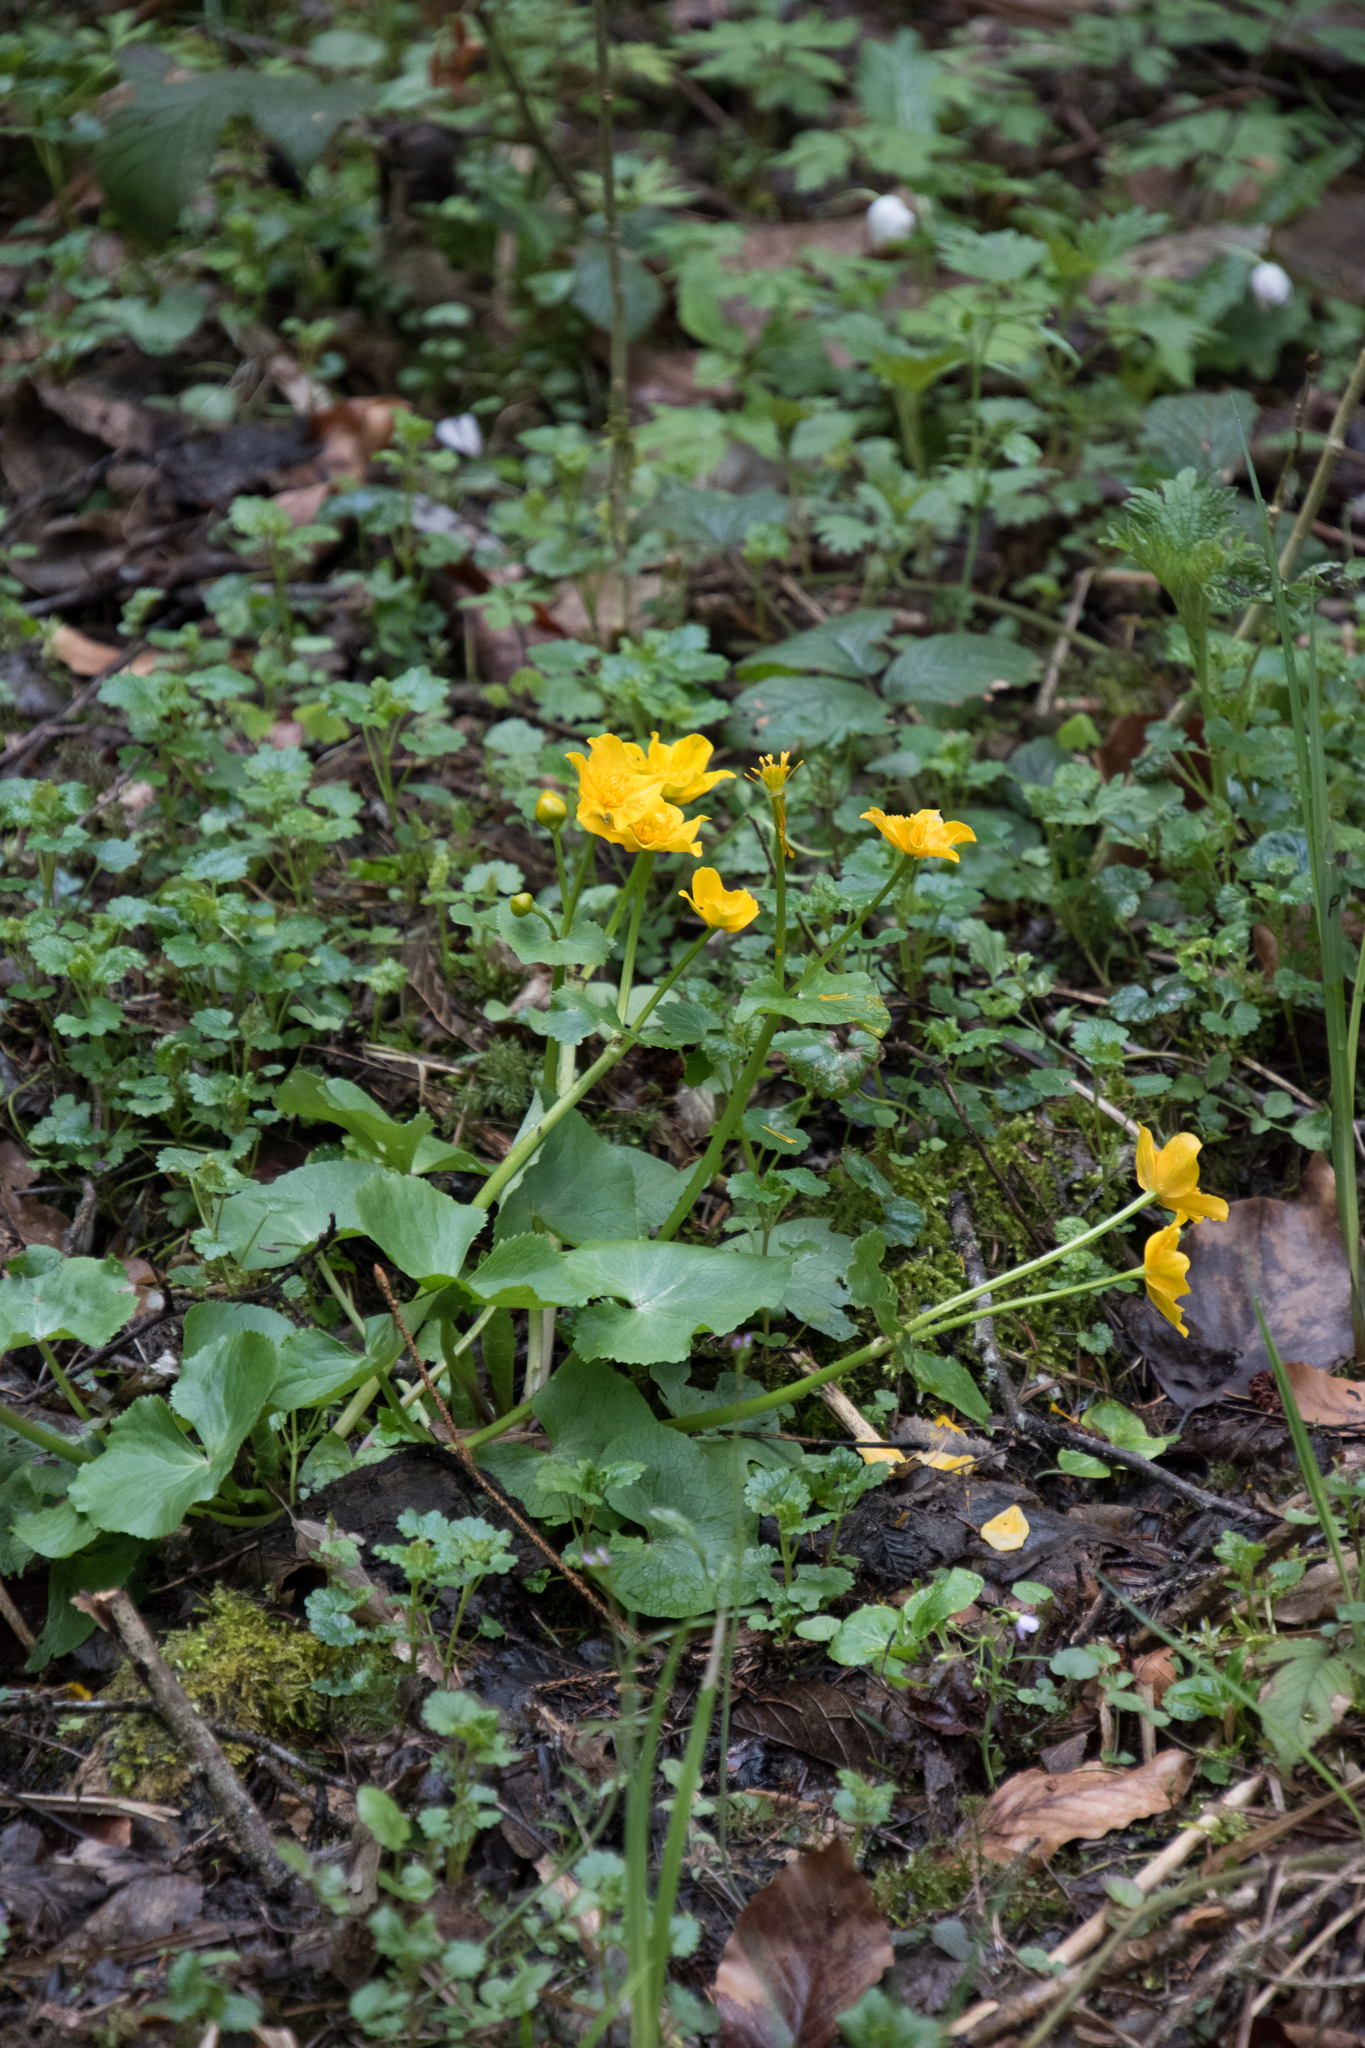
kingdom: Plantae
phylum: Tracheophyta
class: Magnoliopsida
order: Ranunculales
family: Ranunculaceae
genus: Caltha
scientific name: Caltha palustris
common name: Marsh marigold
